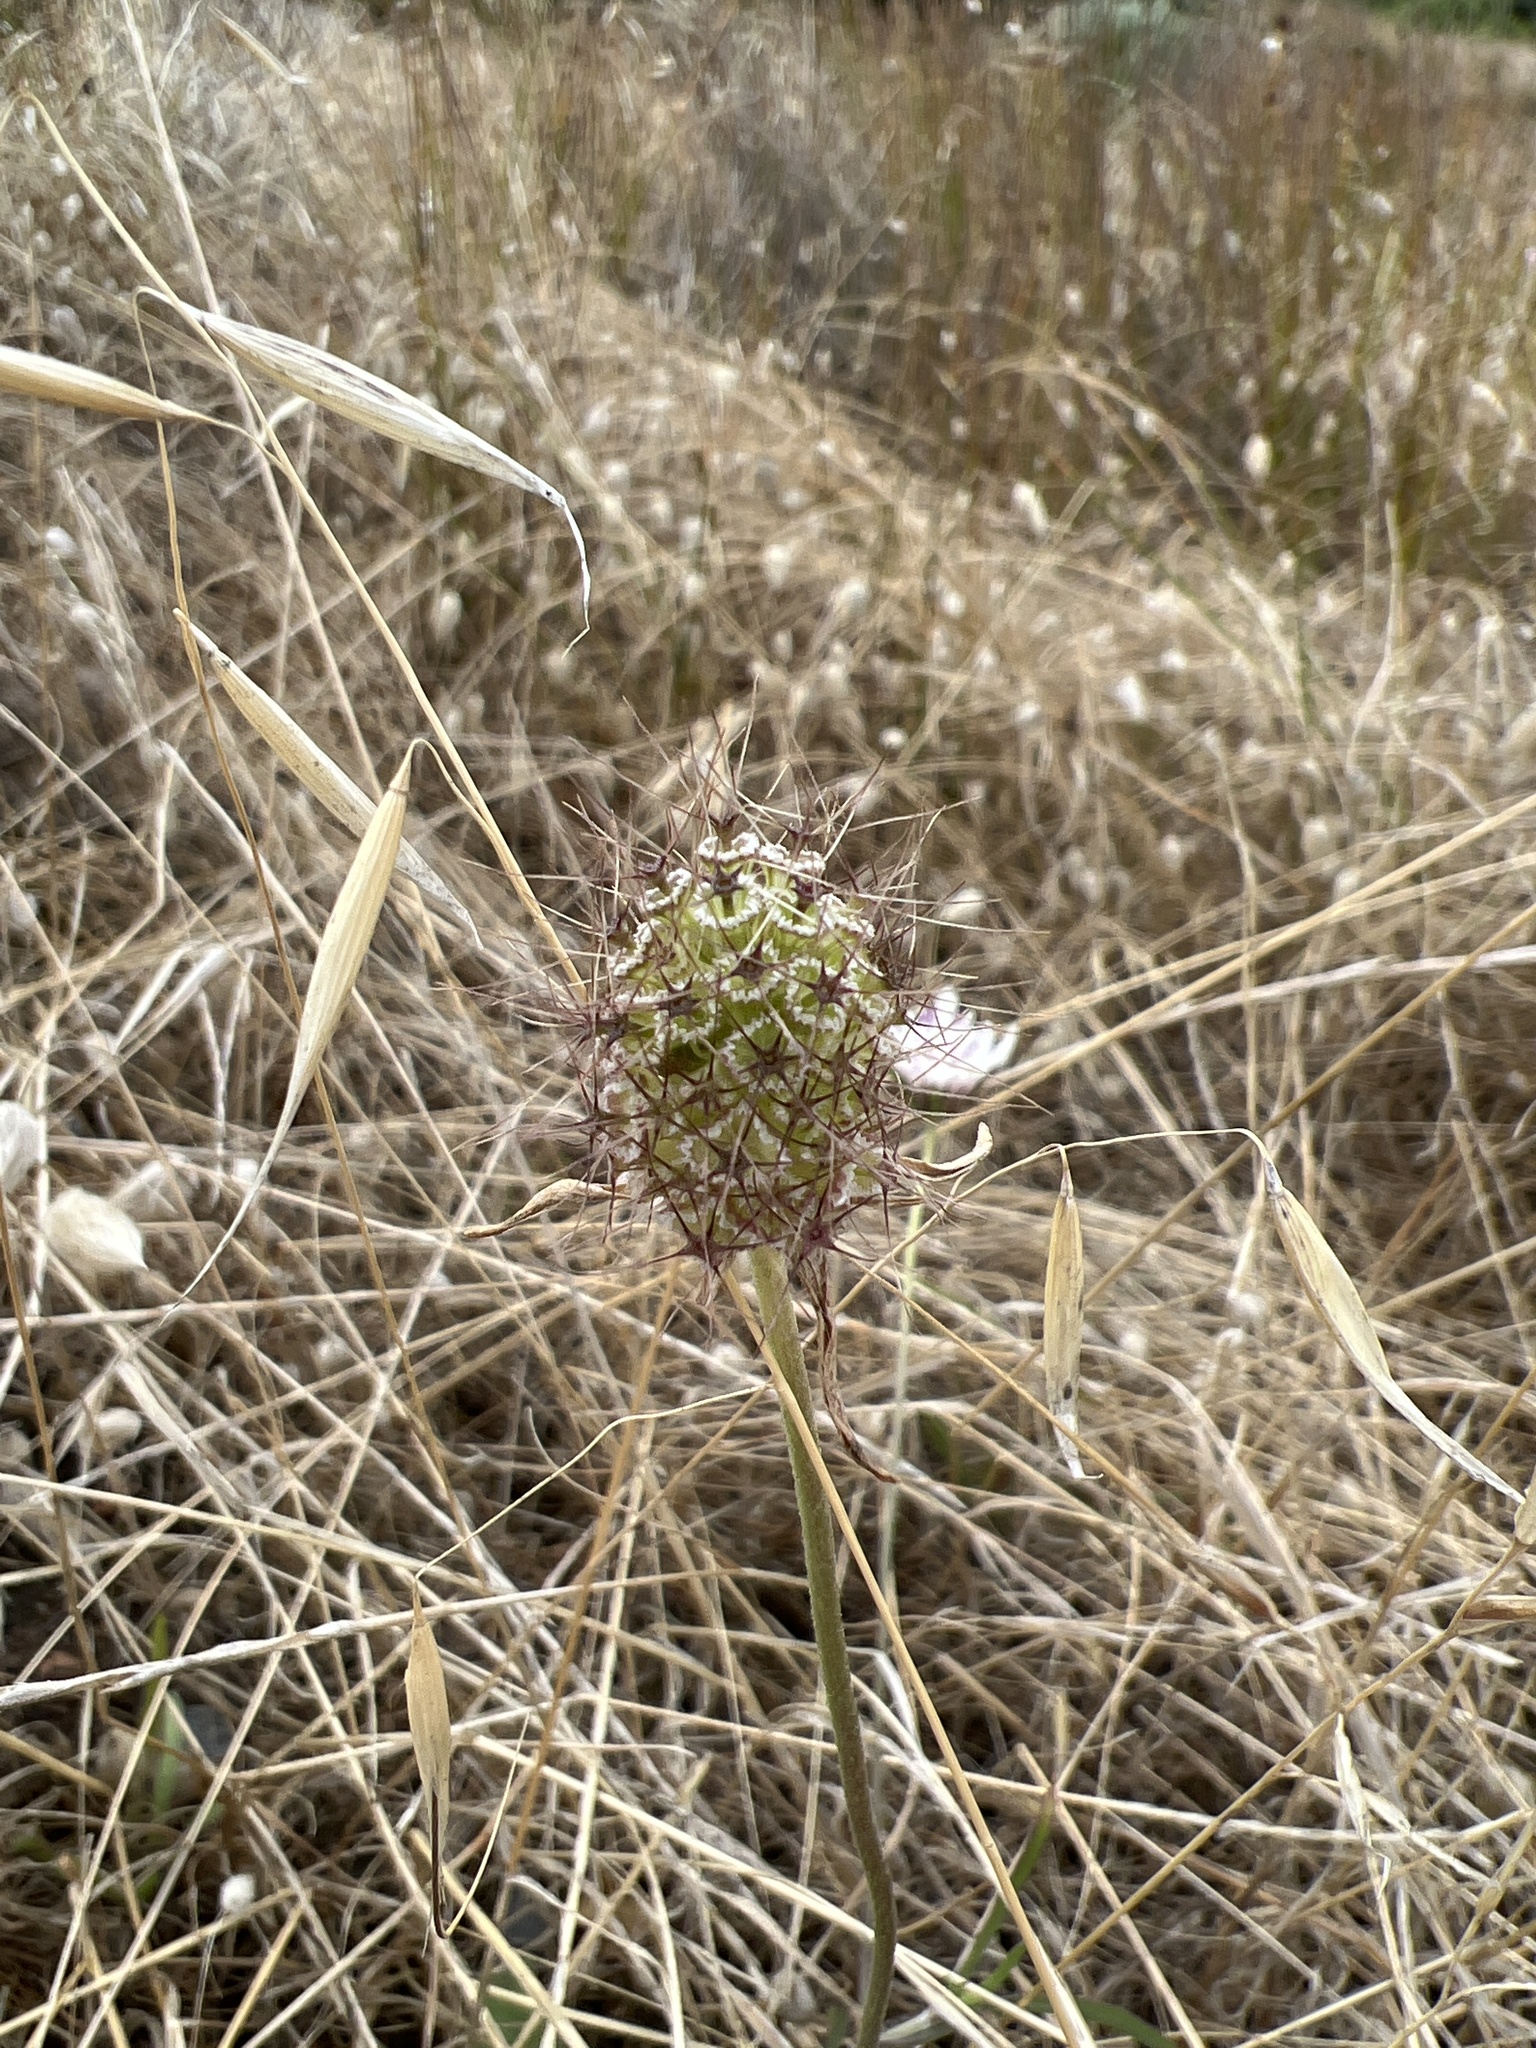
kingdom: Plantae
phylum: Tracheophyta
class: Magnoliopsida
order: Dipsacales
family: Caprifoliaceae
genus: Sixalix
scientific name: Sixalix atropurpurea
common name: Sweet scabious
